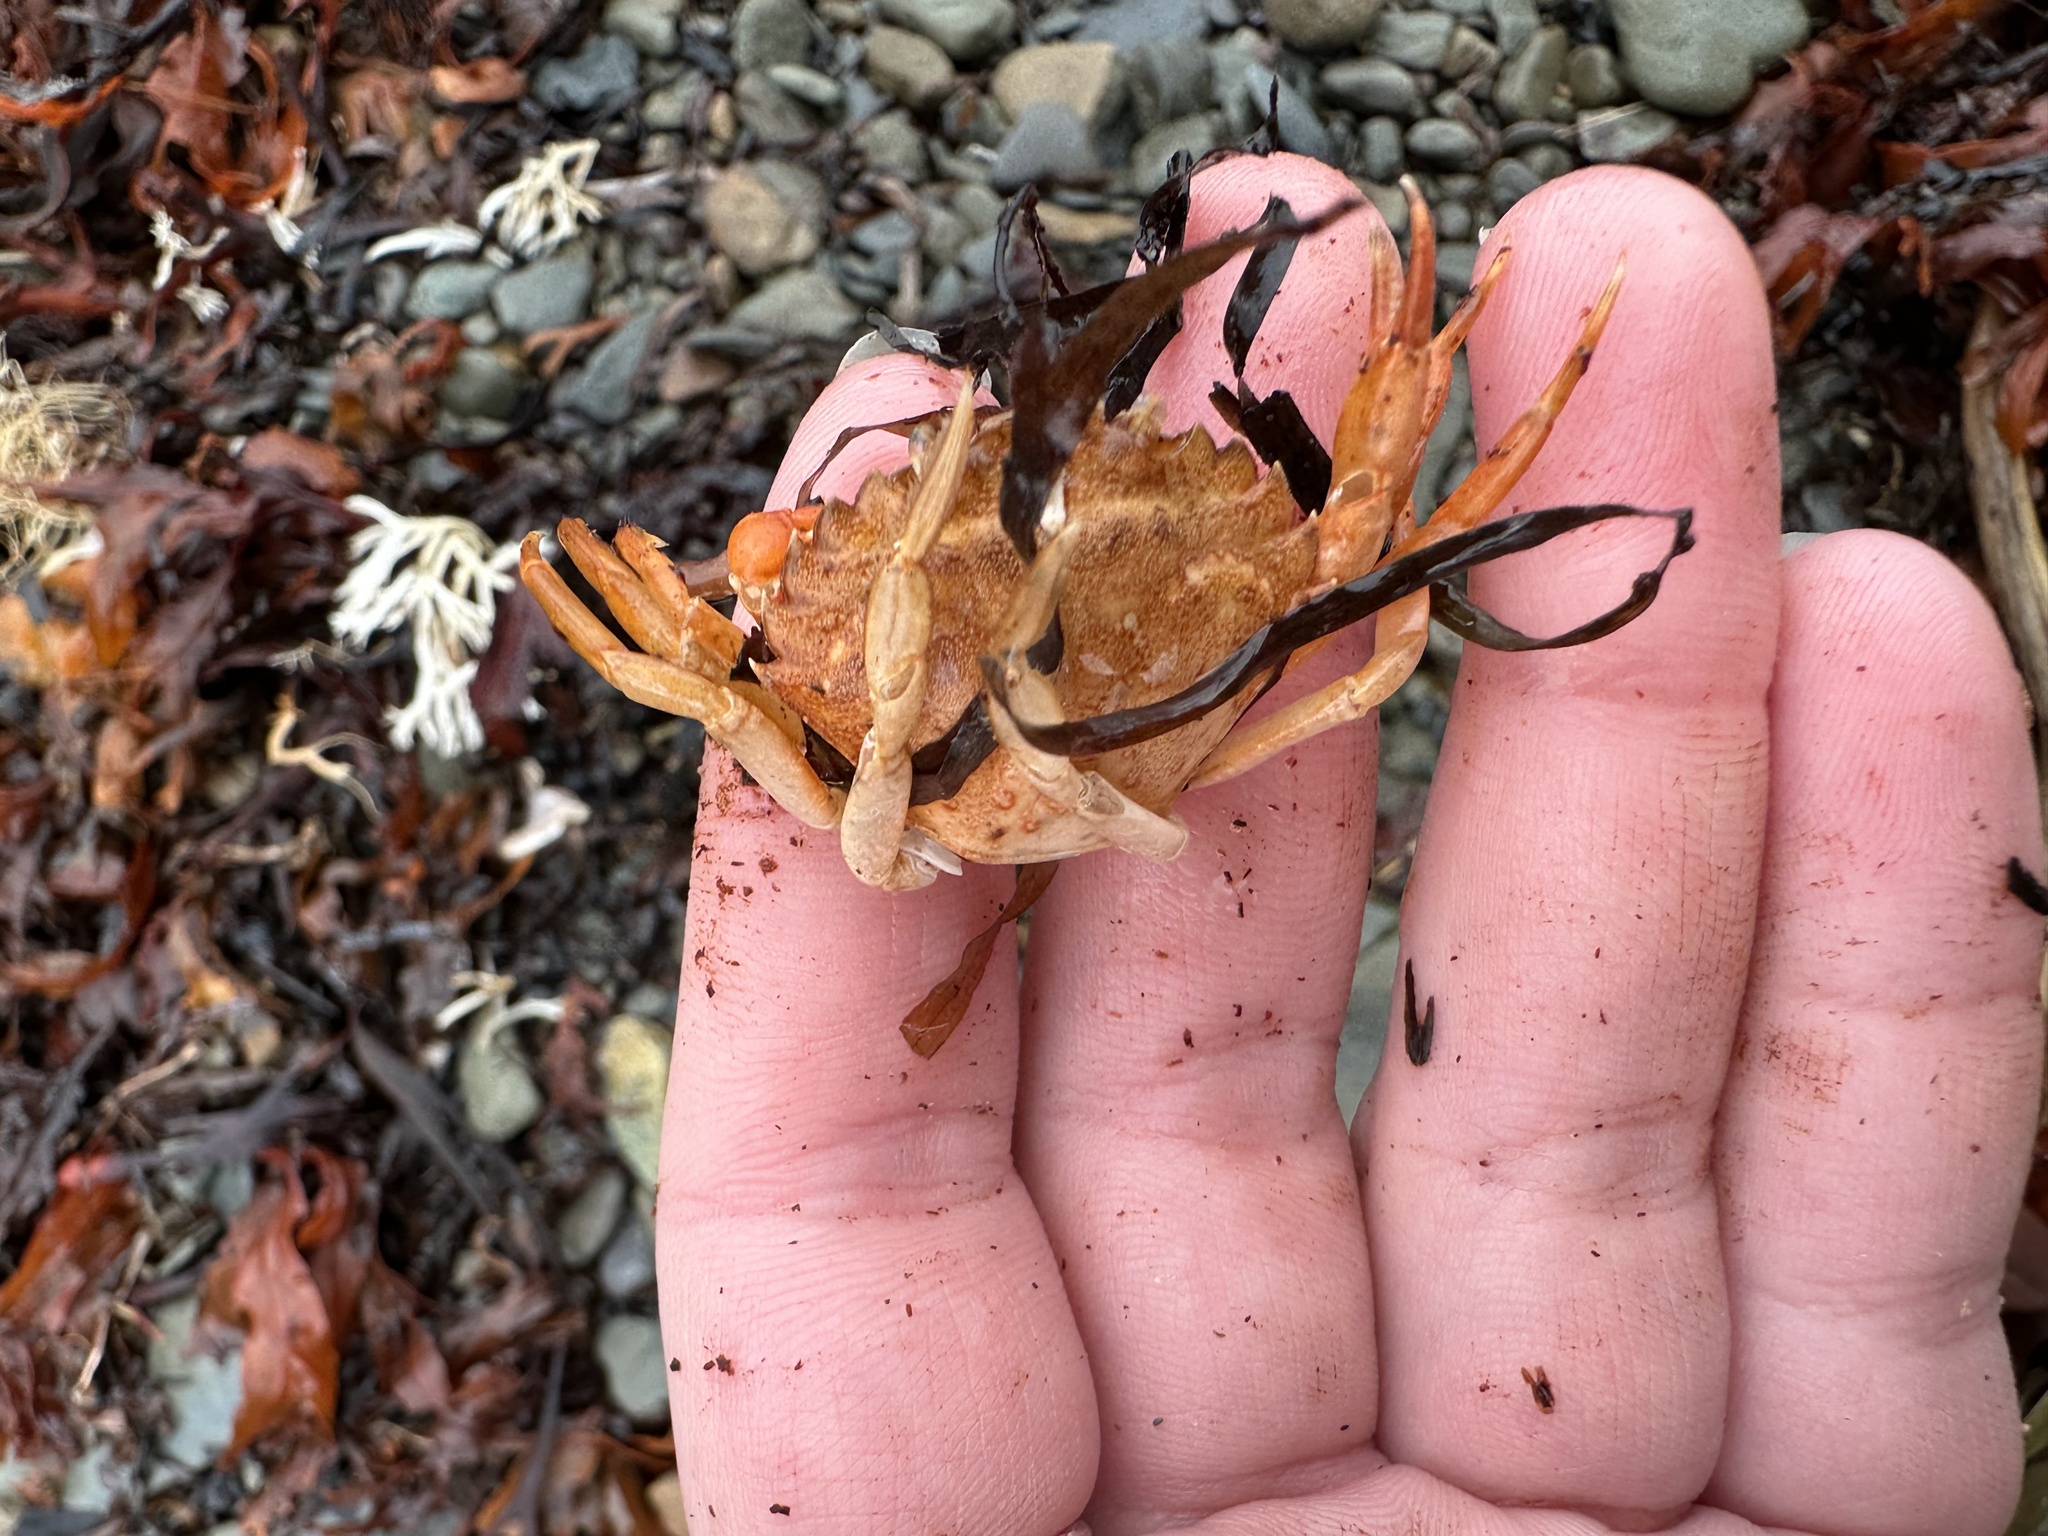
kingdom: Animalia
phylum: Arthropoda
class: Malacostraca
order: Decapoda
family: Carcinidae
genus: Carcinus
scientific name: Carcinus maenas
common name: European green crab
